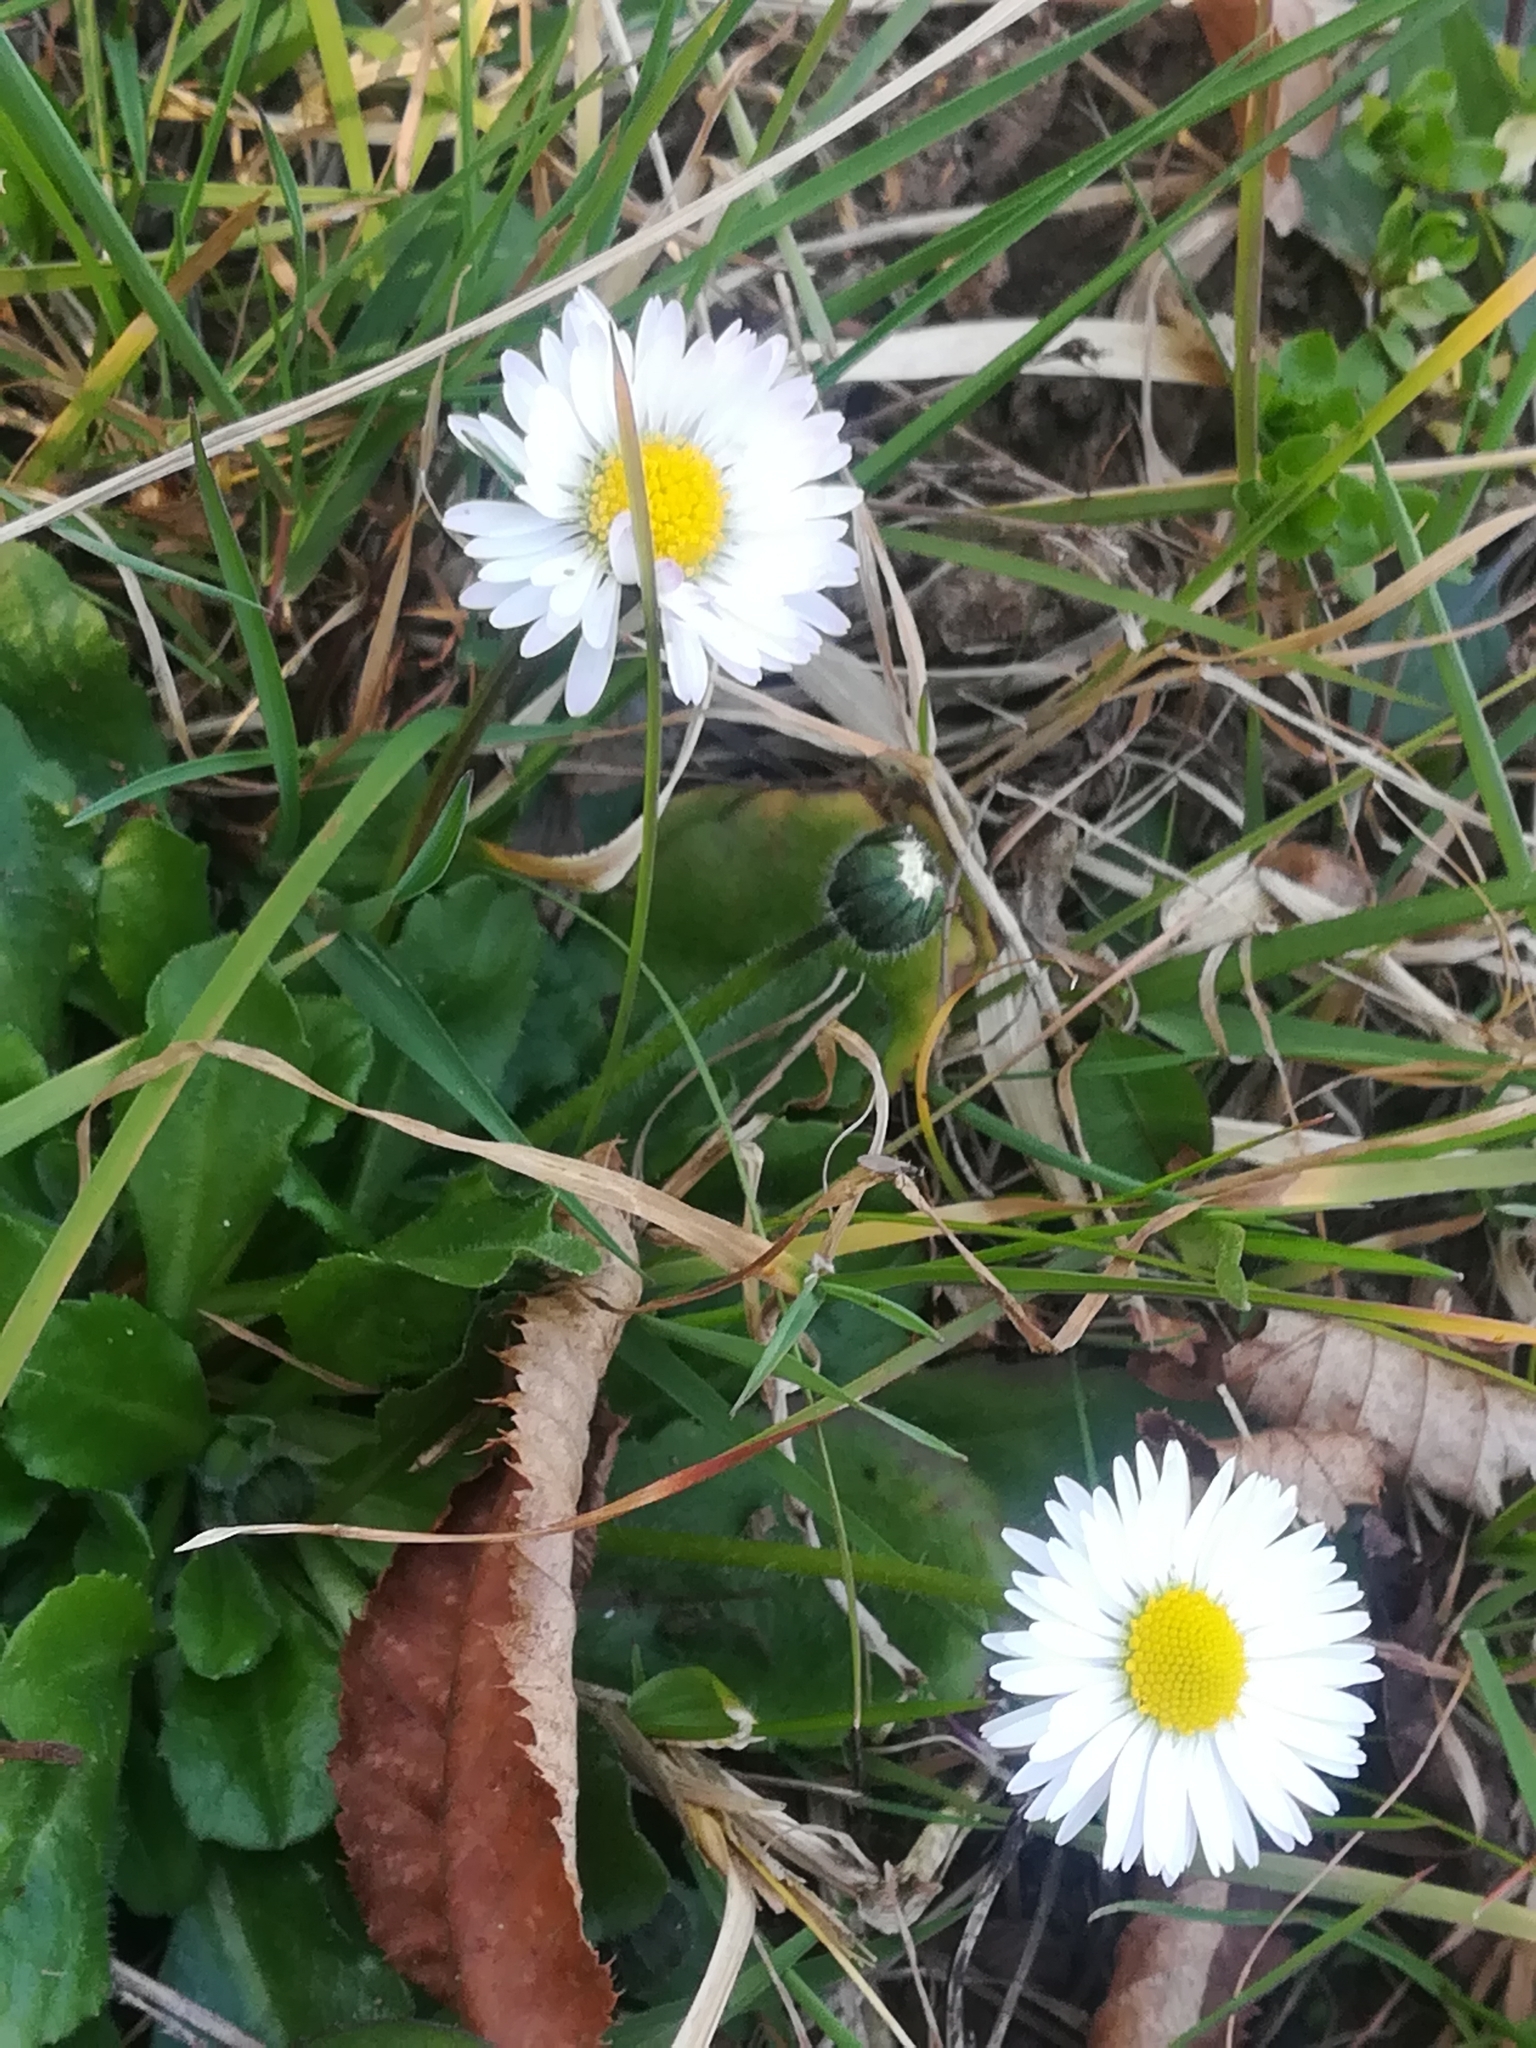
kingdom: Plantae
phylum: Tracheophyta
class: Magnoliopsida
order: Asterales
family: Asteraceae
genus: Bellis
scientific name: Bellis perennis
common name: Lawndaisy
